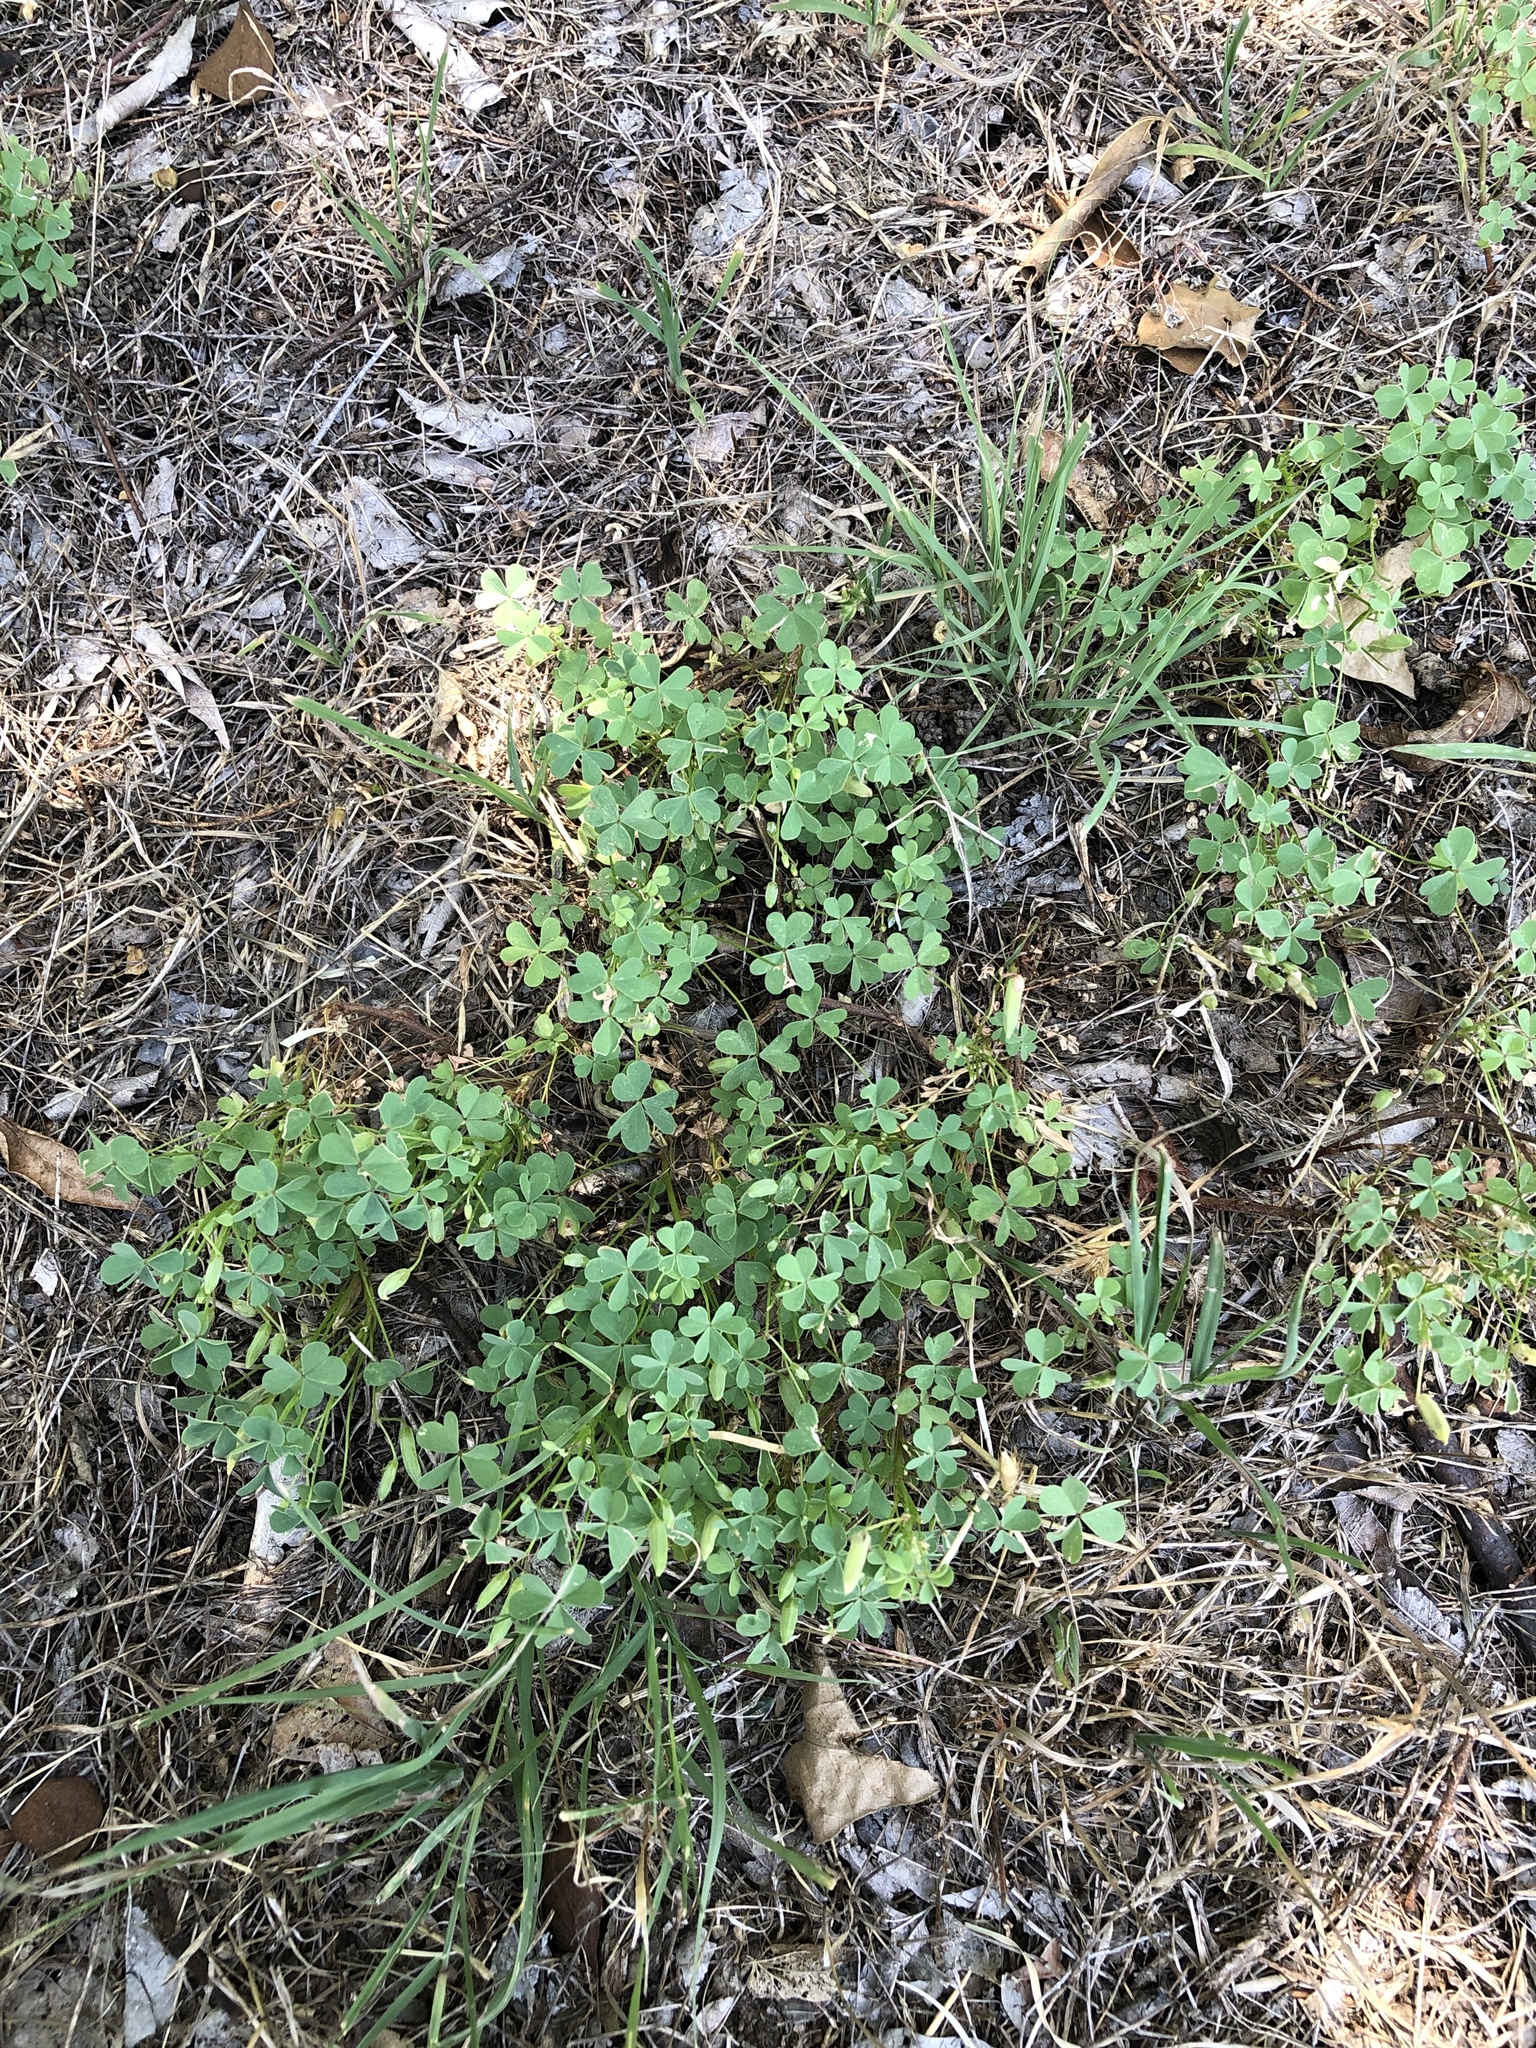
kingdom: Plantae
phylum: Tracheophyta
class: Magnoliopsida
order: Oxalidales
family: Oxalidaceae
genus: Oxalis
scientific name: Oxalis dillenii
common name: Sussex yellow-sorrel
